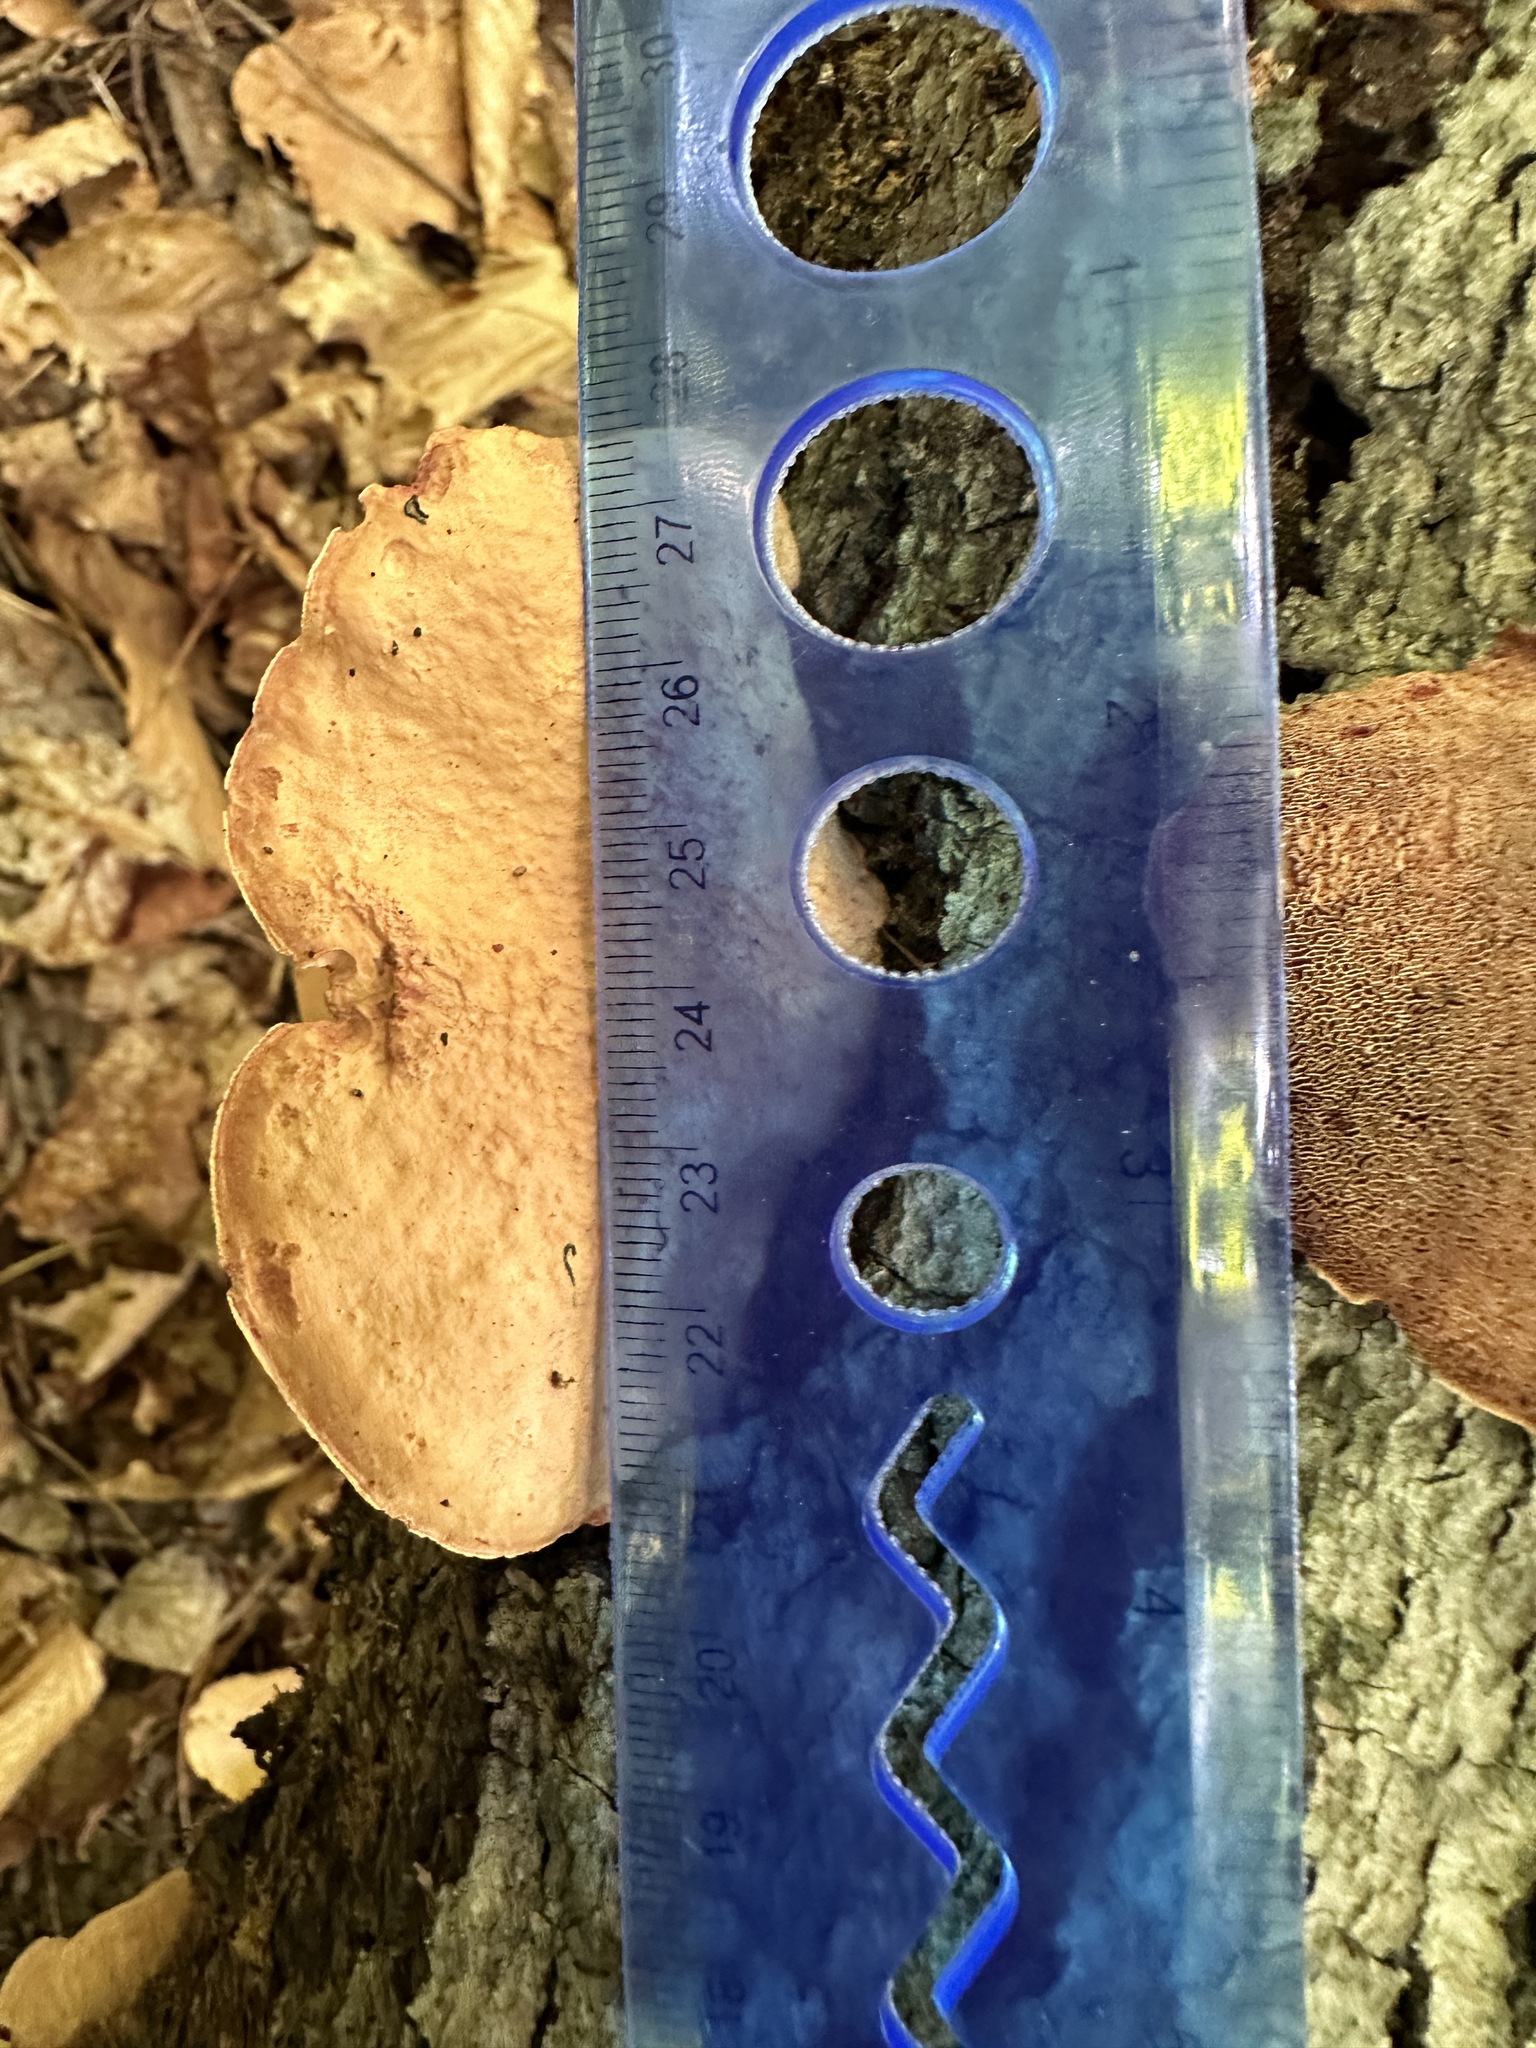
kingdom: Fungi
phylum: Basidiomycota
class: Agaricomycetes
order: Polyporales
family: Phanerochaetaceae
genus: Hapalopilus
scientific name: Hapalopilus rutilans
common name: Tender nesting polypore
